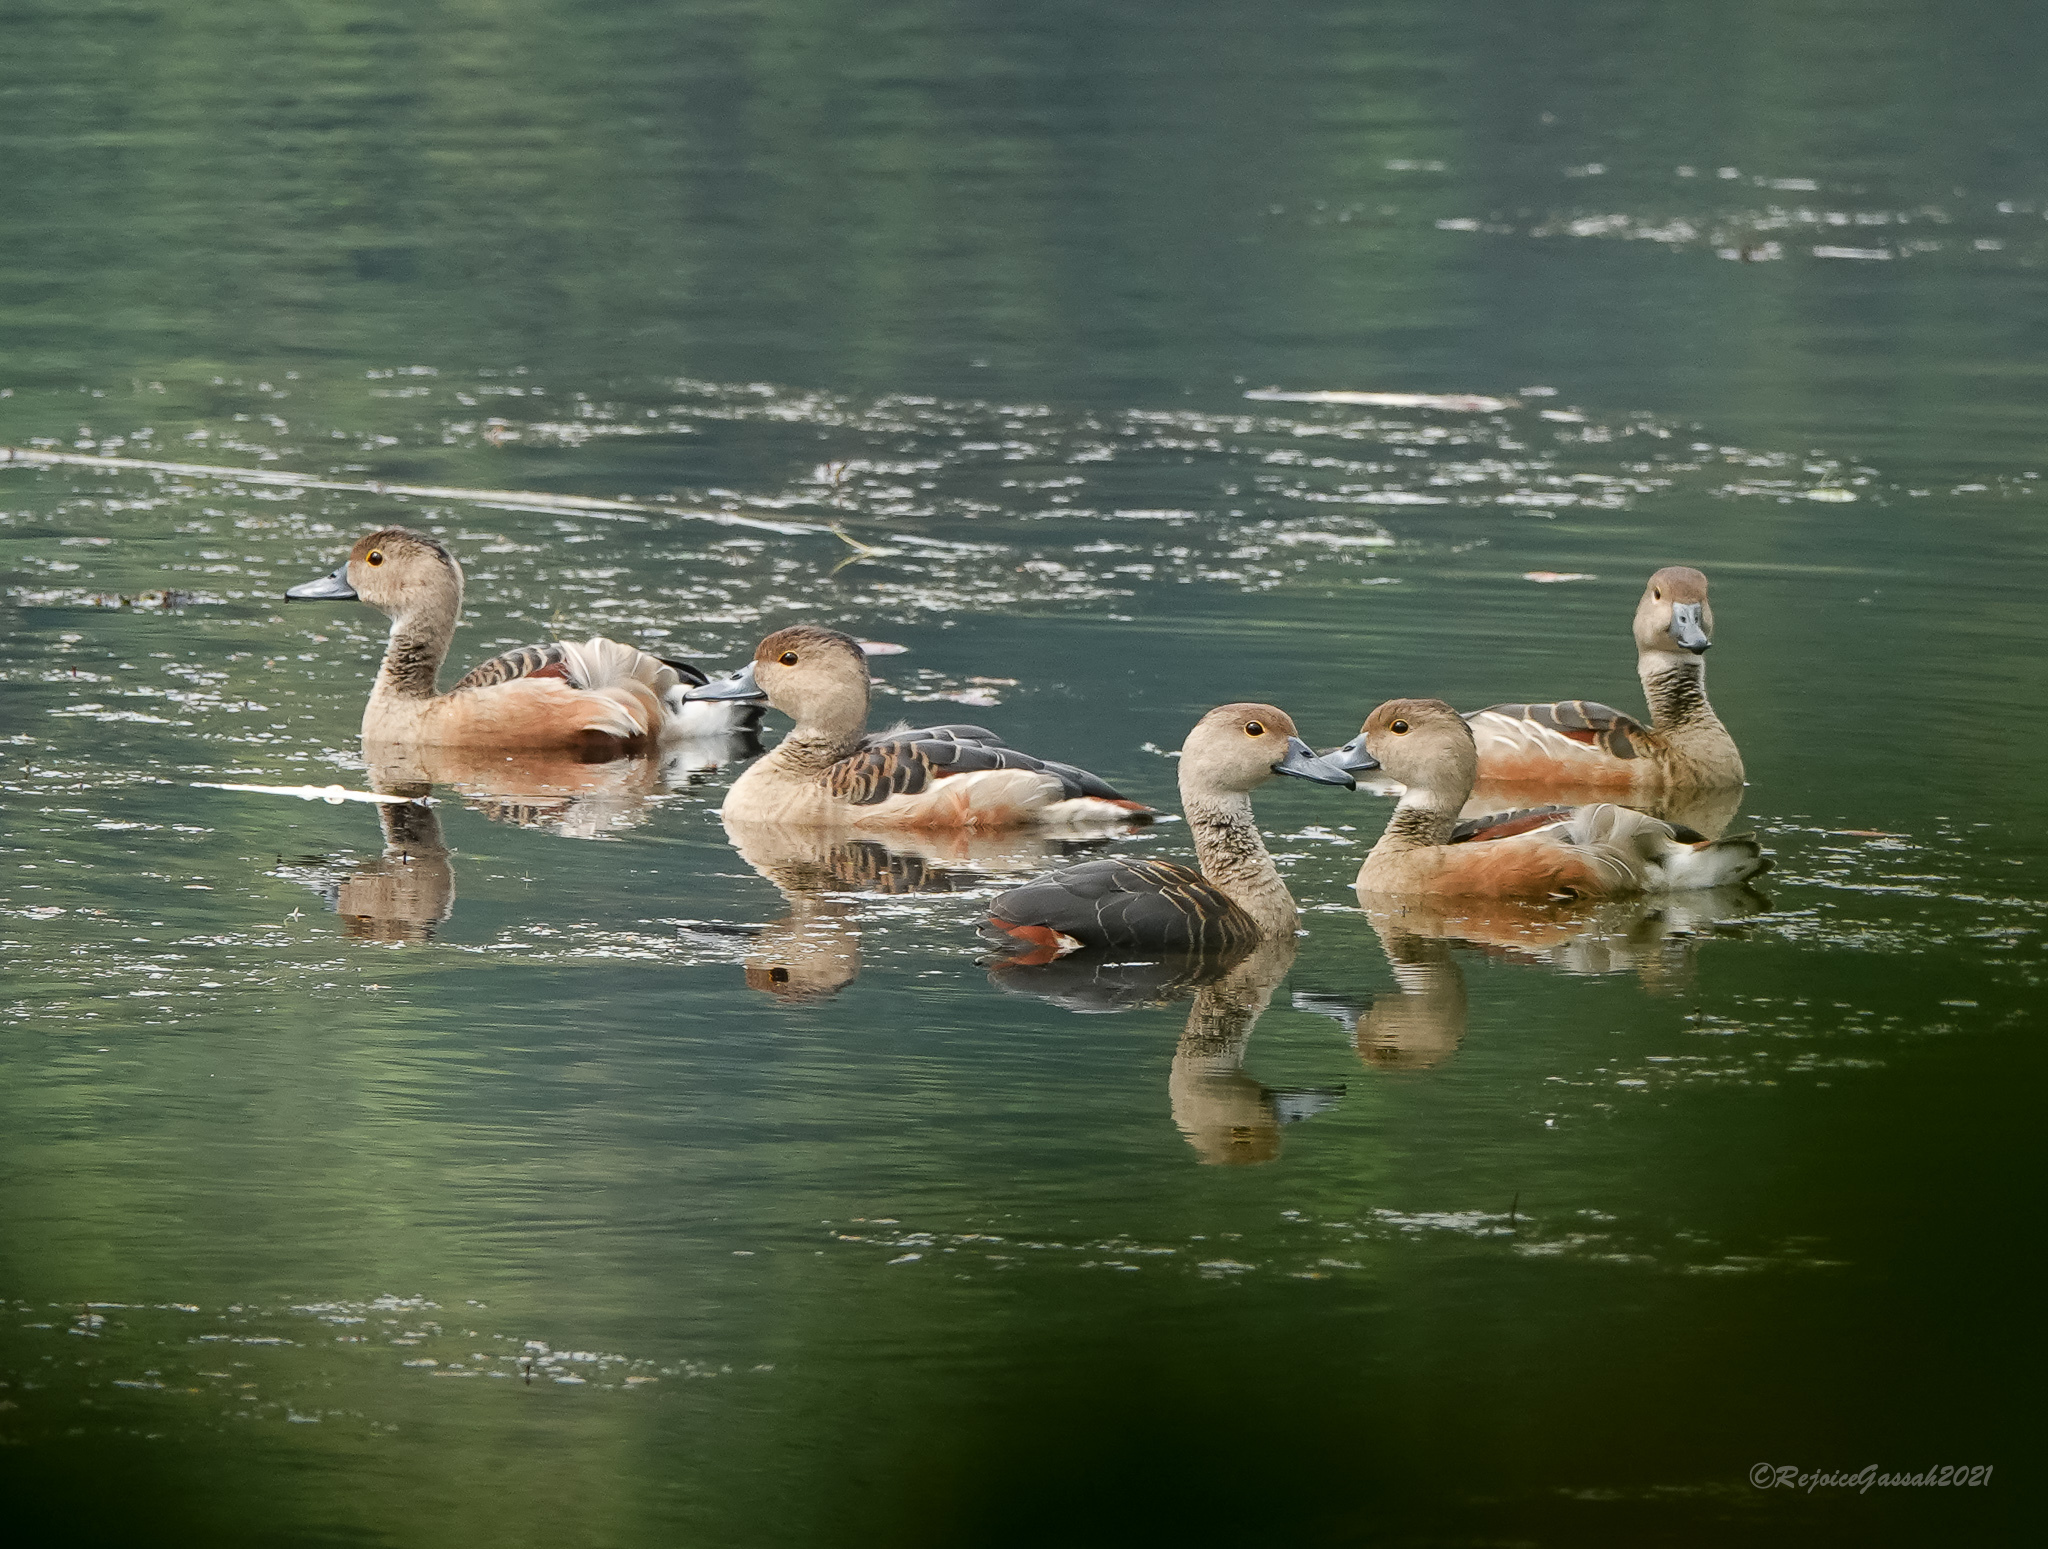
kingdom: Animalia
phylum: Chordata
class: Aves
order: Anseriformes
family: Anatidae
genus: Dendrocygna
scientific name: Dendrocygna javanica
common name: Lesser whistling-duck
